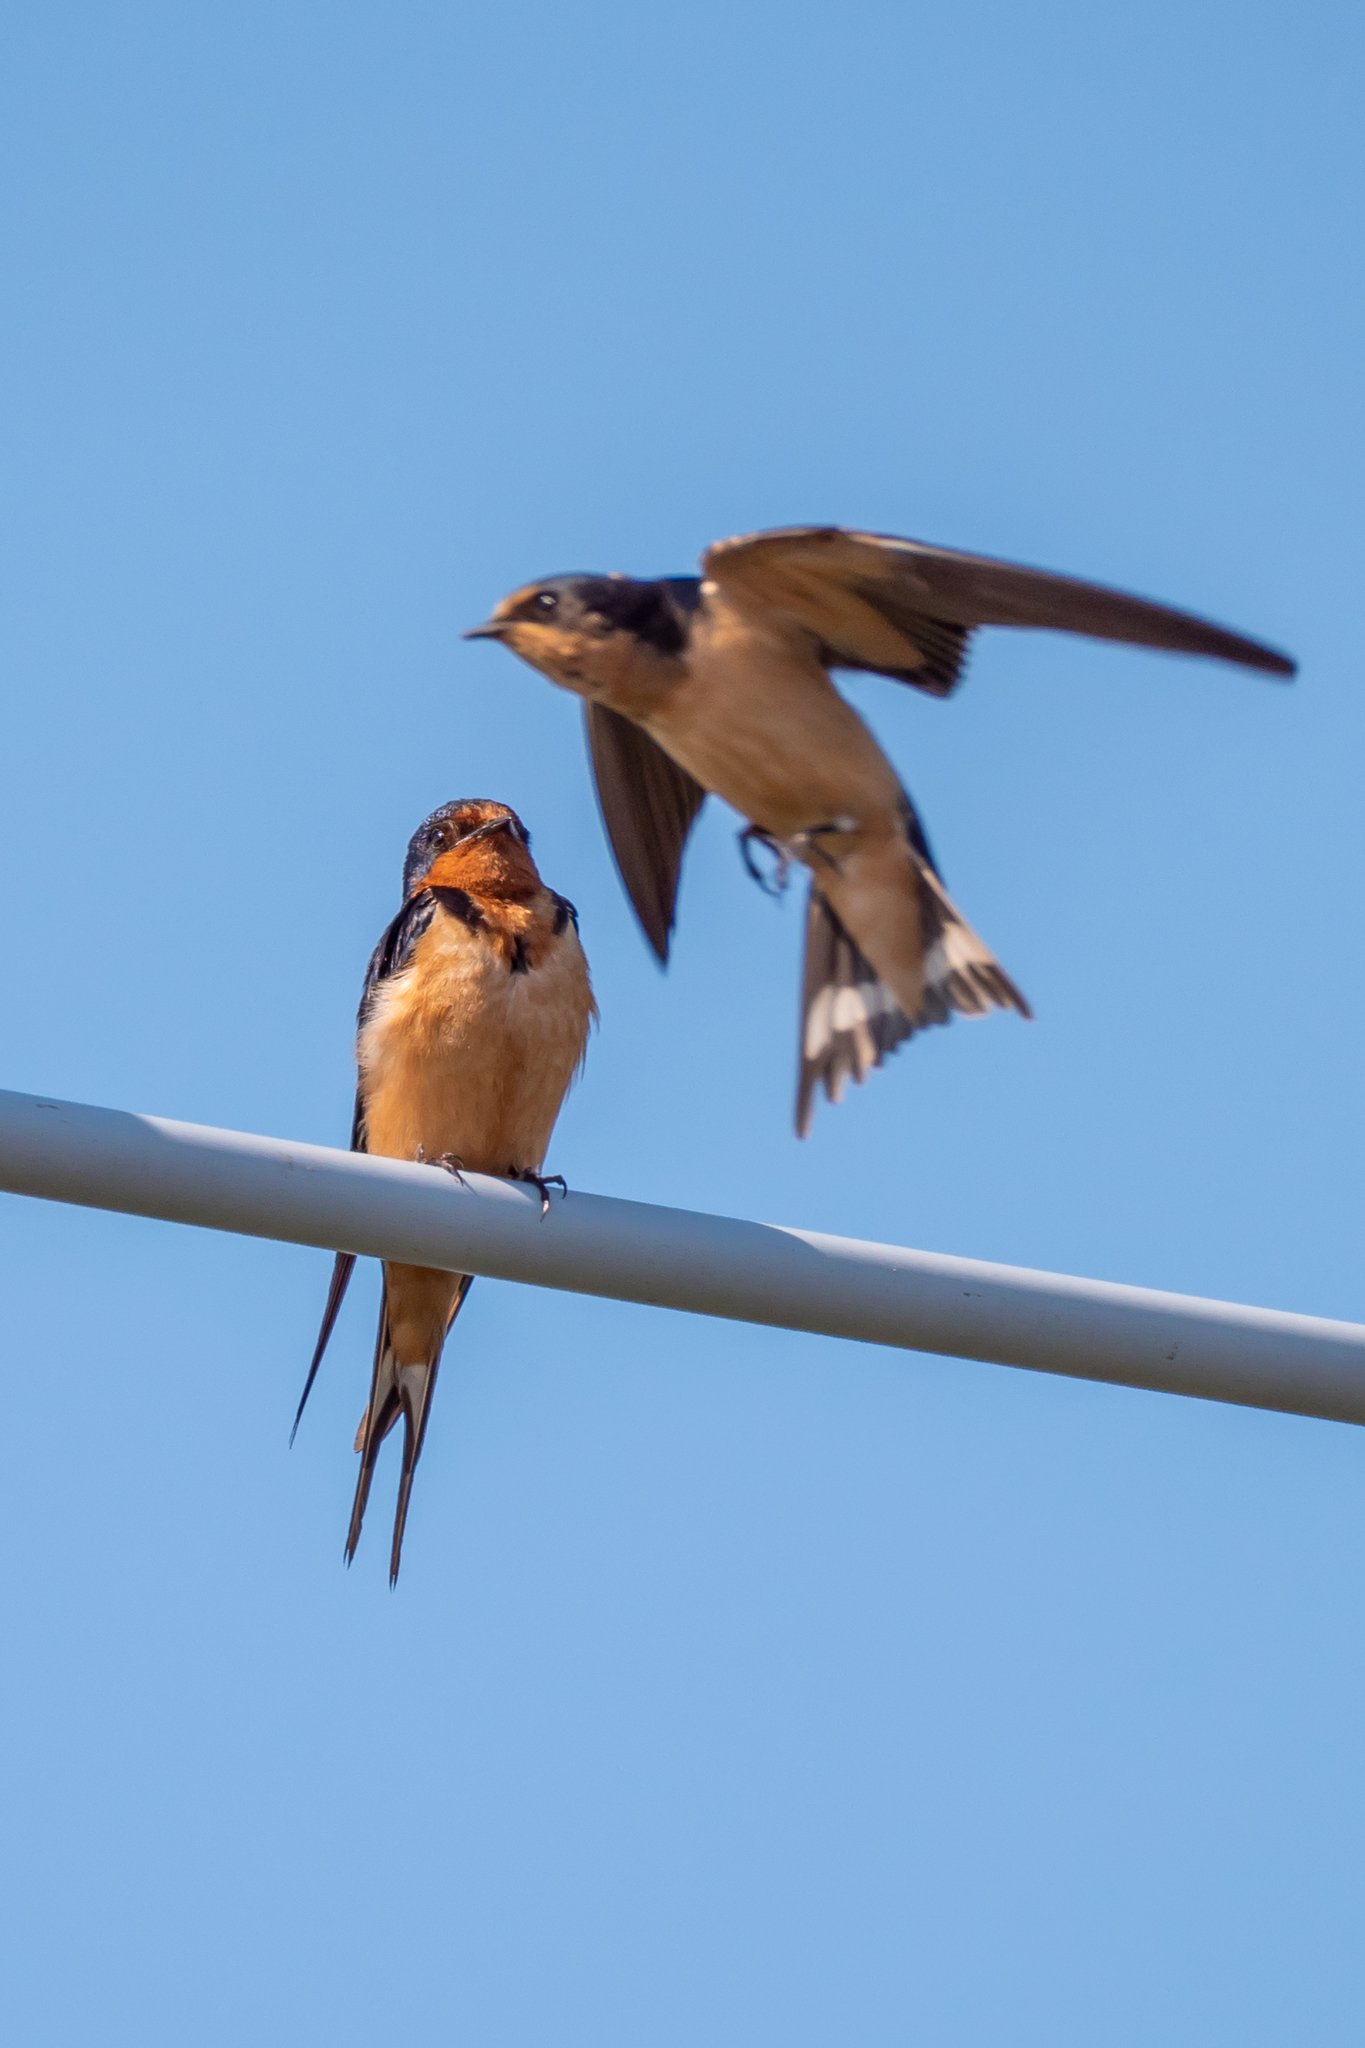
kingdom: Animalia
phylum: Chordata
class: Aves
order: Passeriformes
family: Hirundinidae
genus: Hirundo
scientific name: Hirundo rustica
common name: Barn swallow
